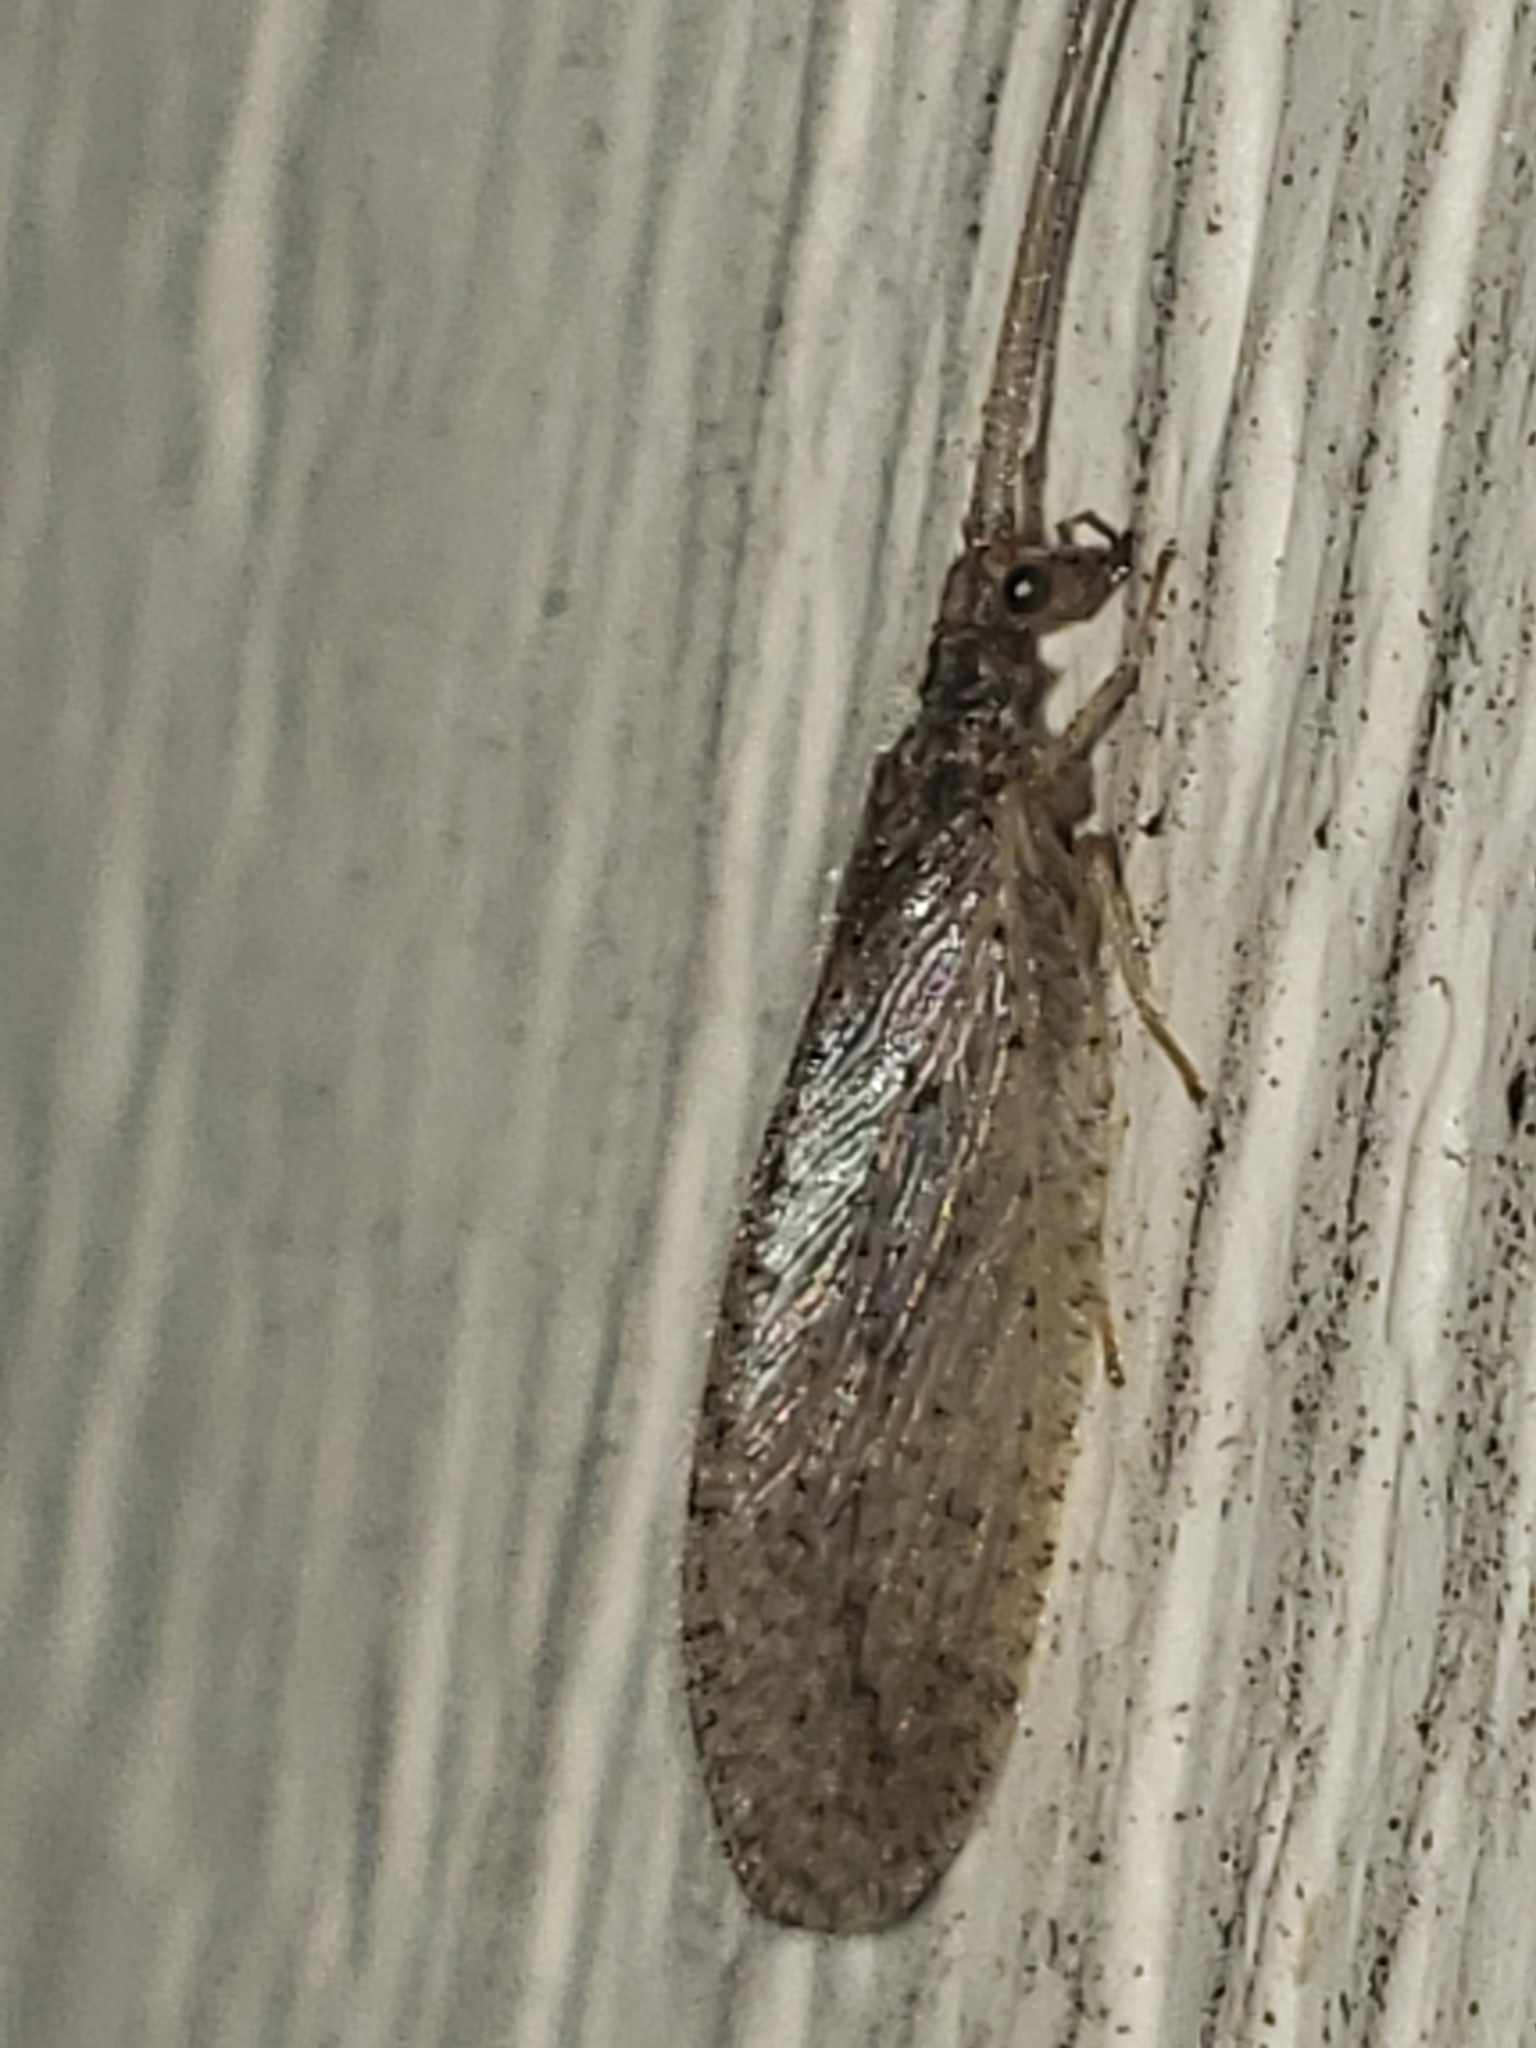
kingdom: Animalia
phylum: Arthropoda
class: Insecta
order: Neuroptera
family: Hemerobiidae
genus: Micromus
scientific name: Micromus subanticus
